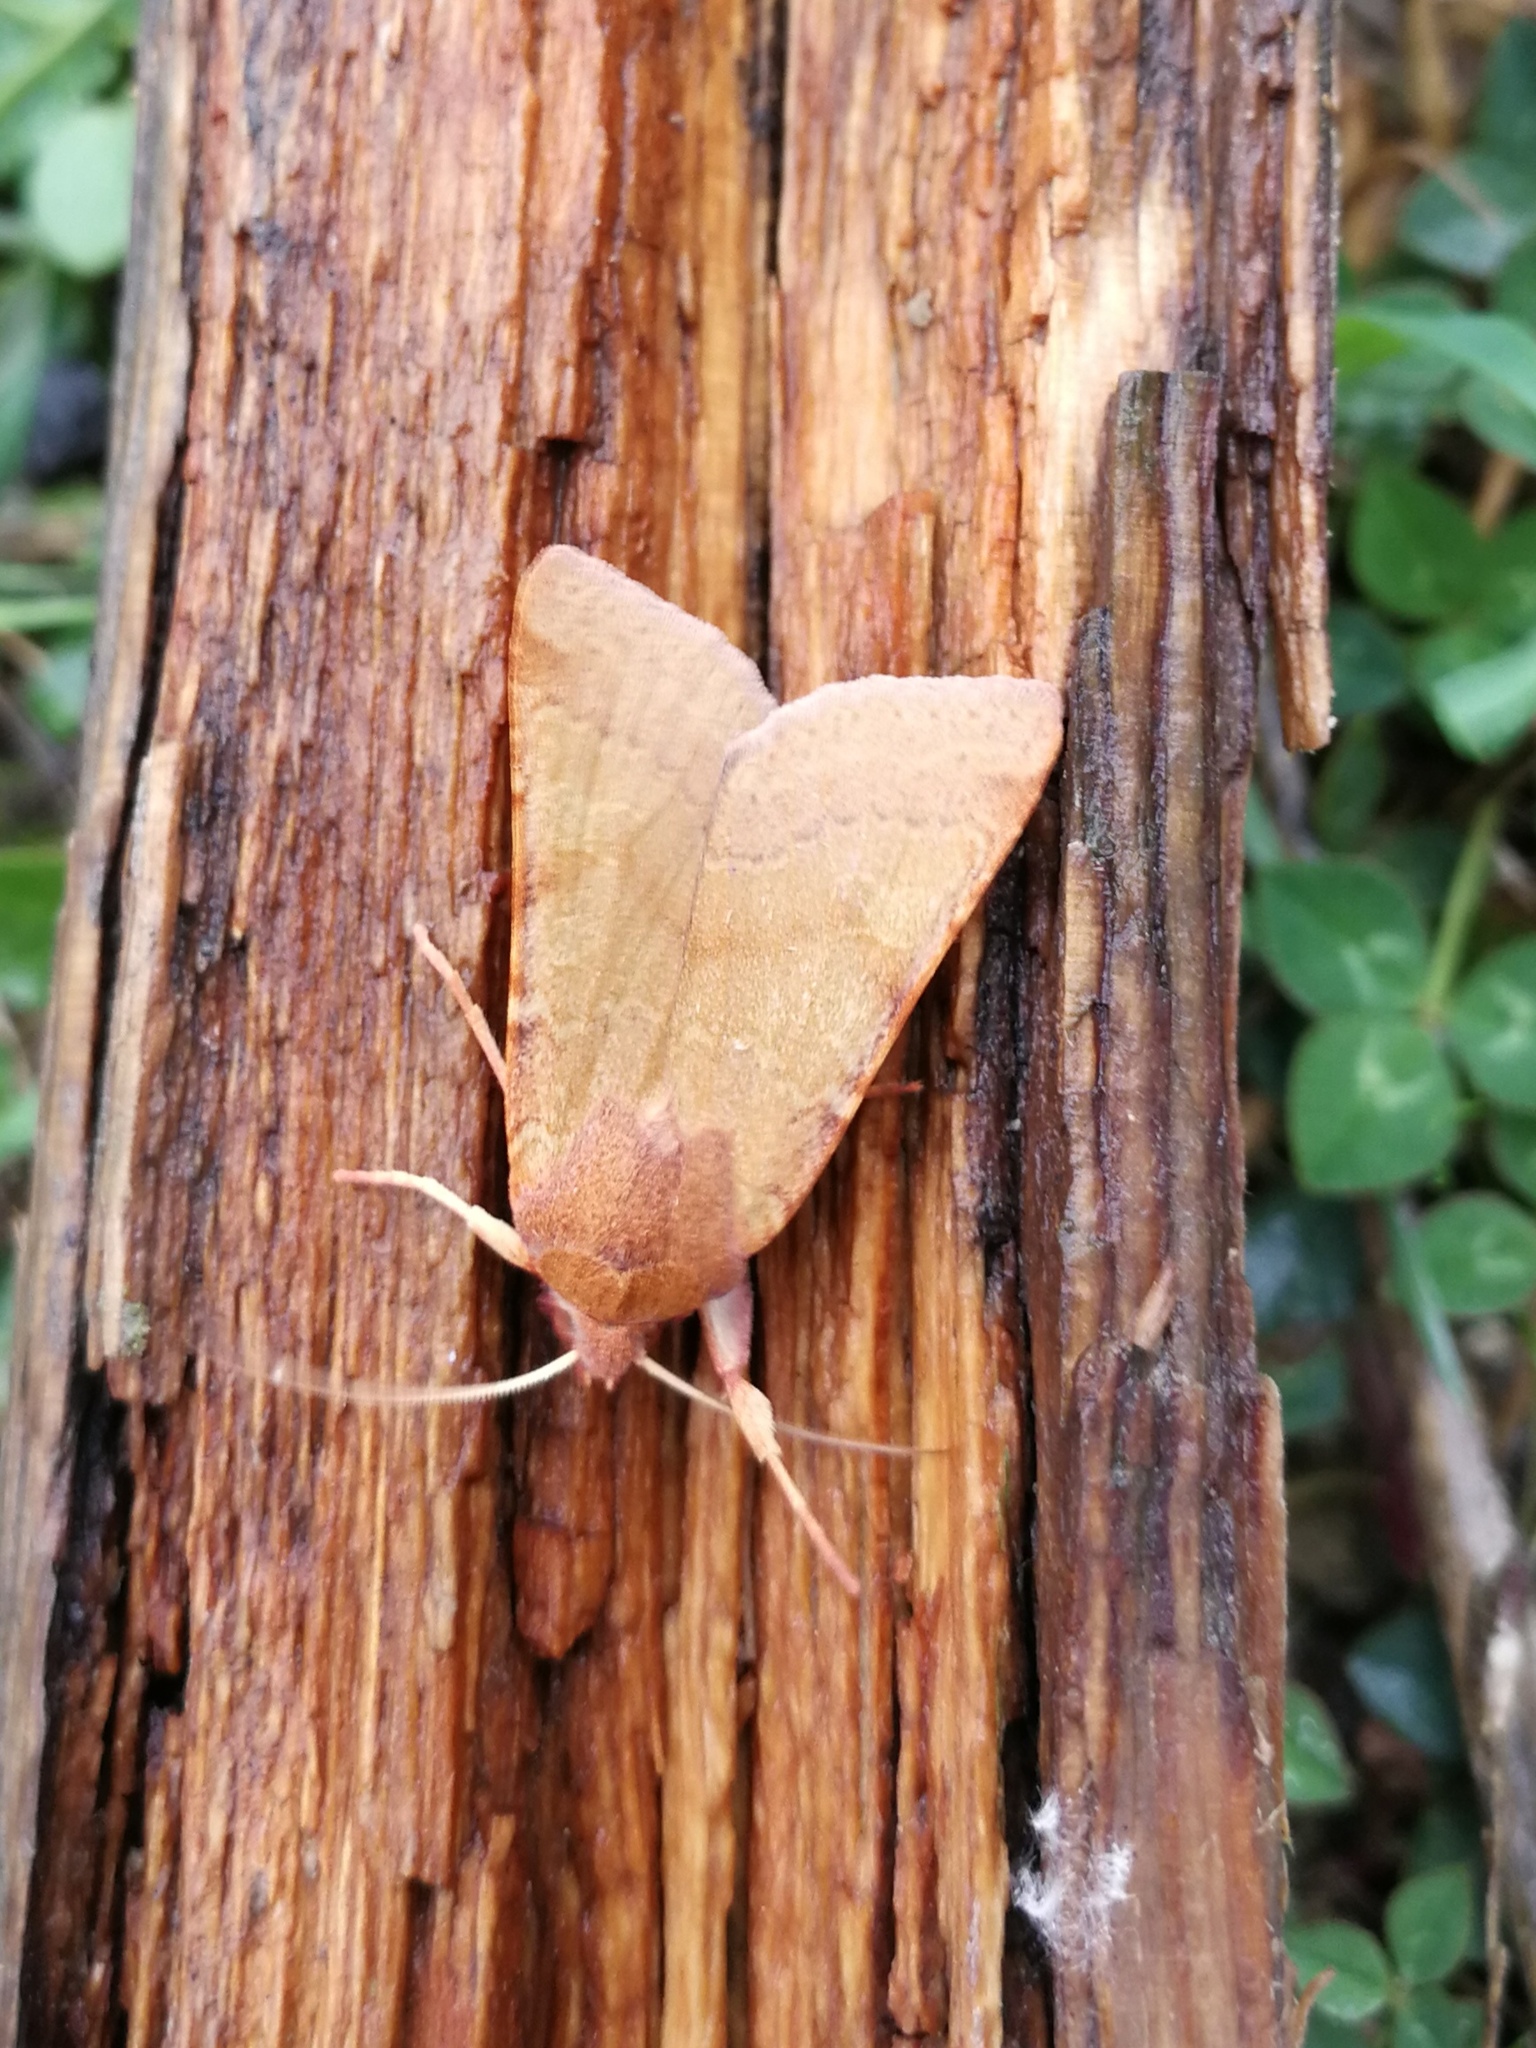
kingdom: Animalia
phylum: Arthropoda
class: Insecta
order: Lepidoptera
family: Noctuidae
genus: Agrochola
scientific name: Agrochola helvola
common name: Flounced chestnut
